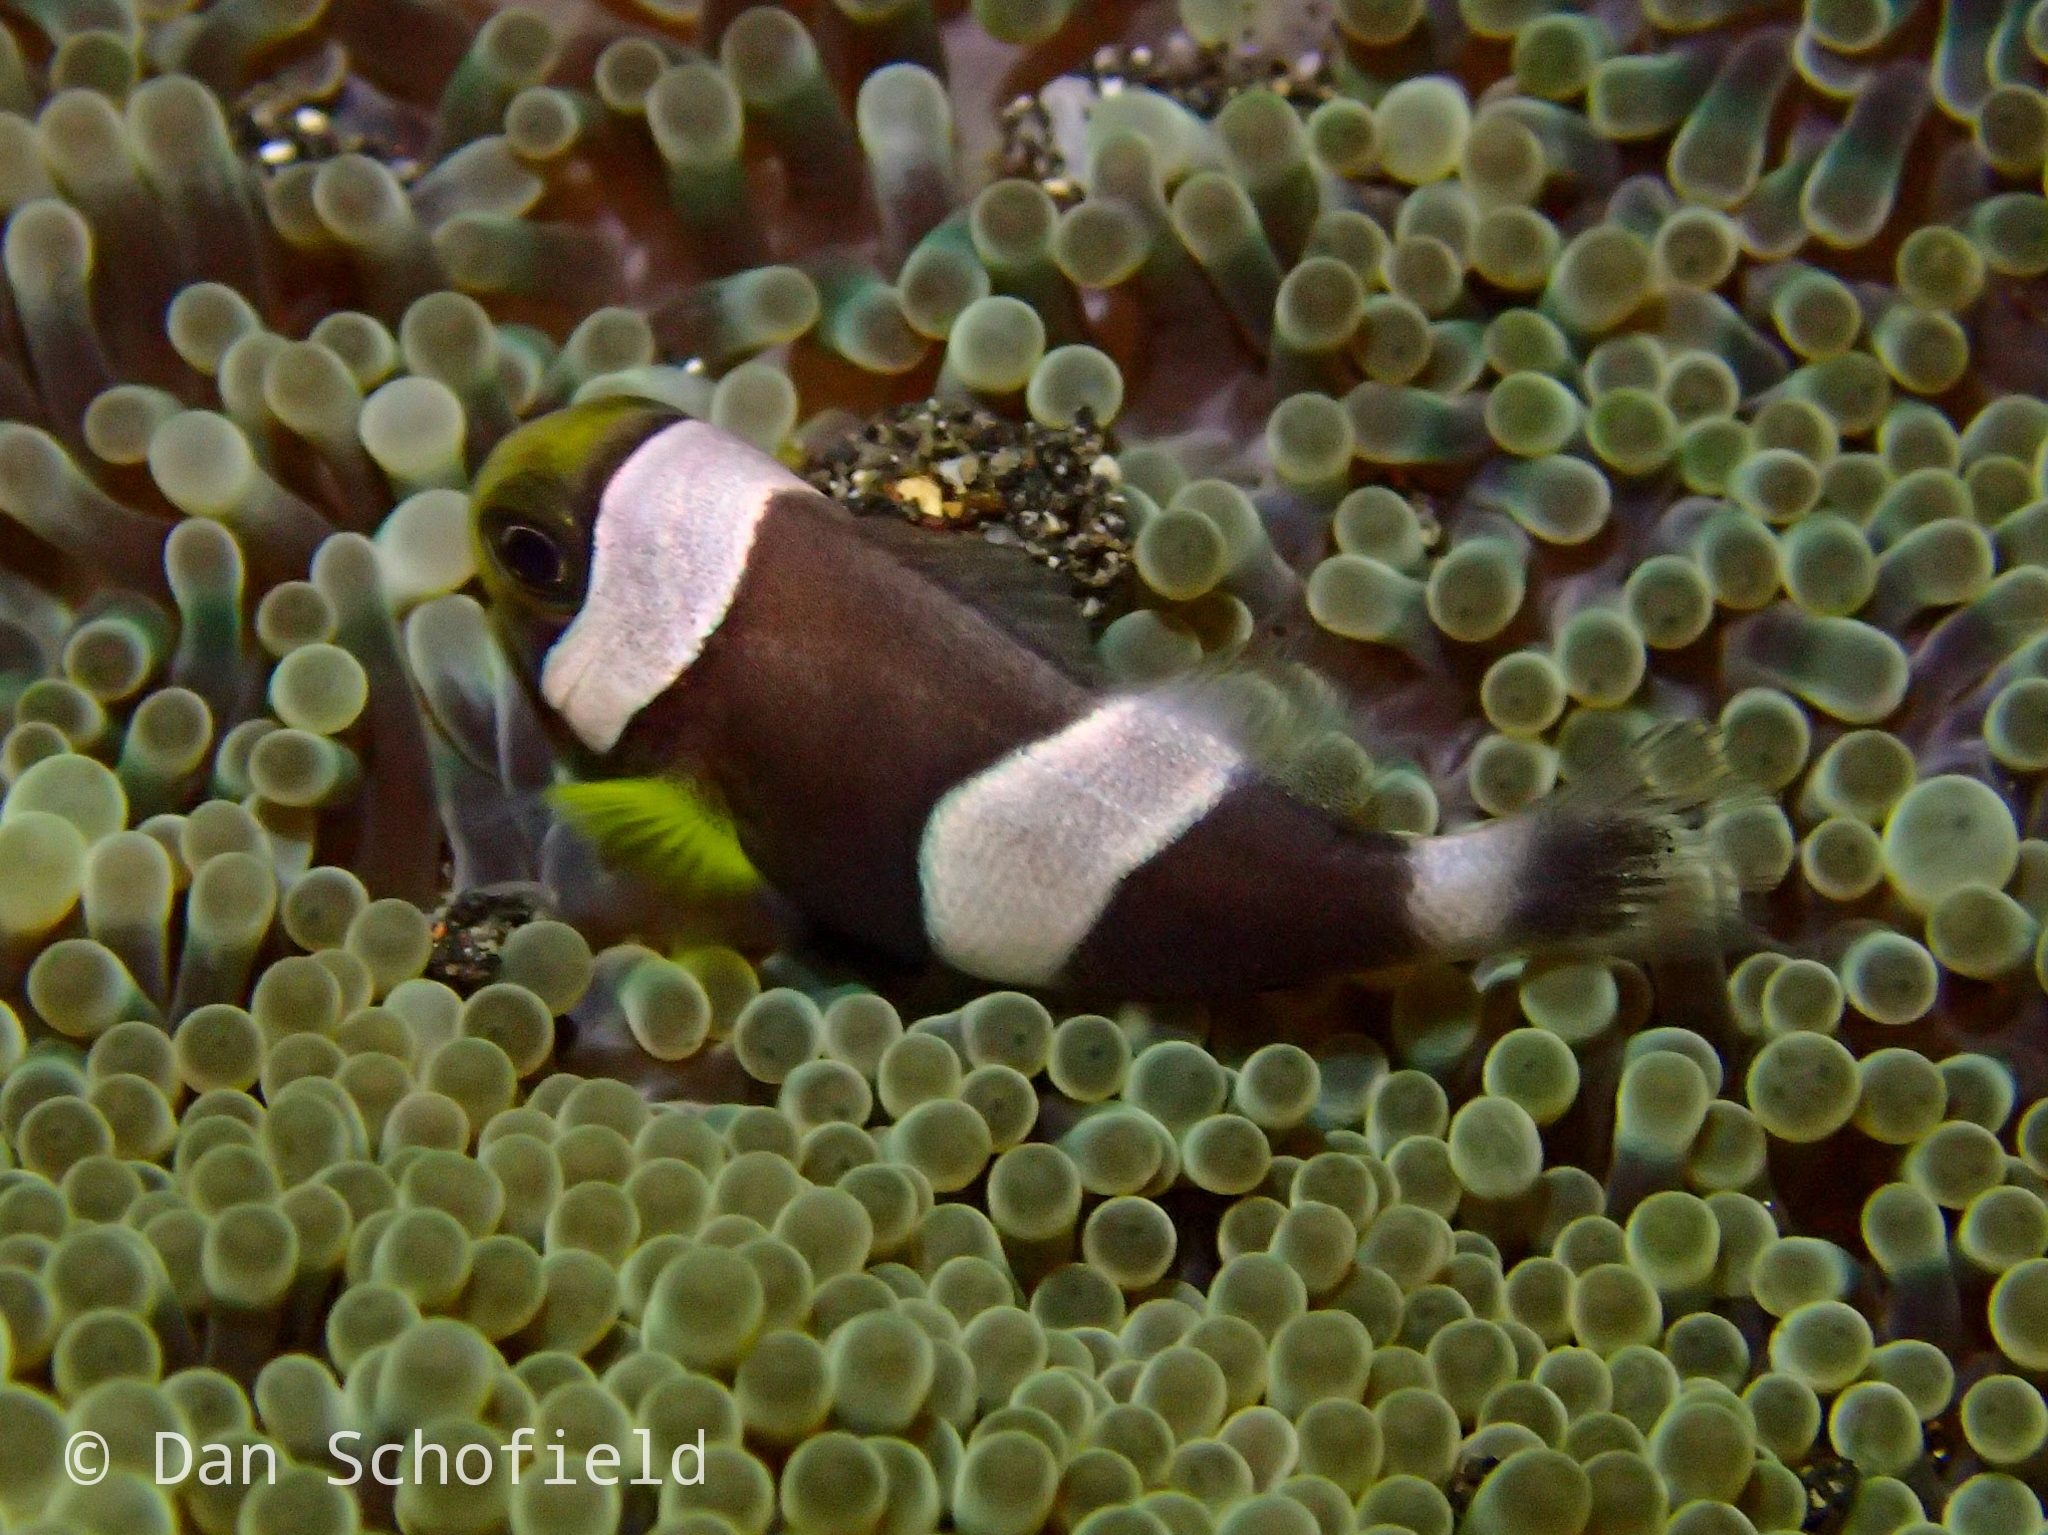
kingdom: Animalia
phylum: Chordata
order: Perciformes
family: Pomacentridae
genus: Amphiprion
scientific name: Amphiprion polymnus
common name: Saddleback anemonefish
